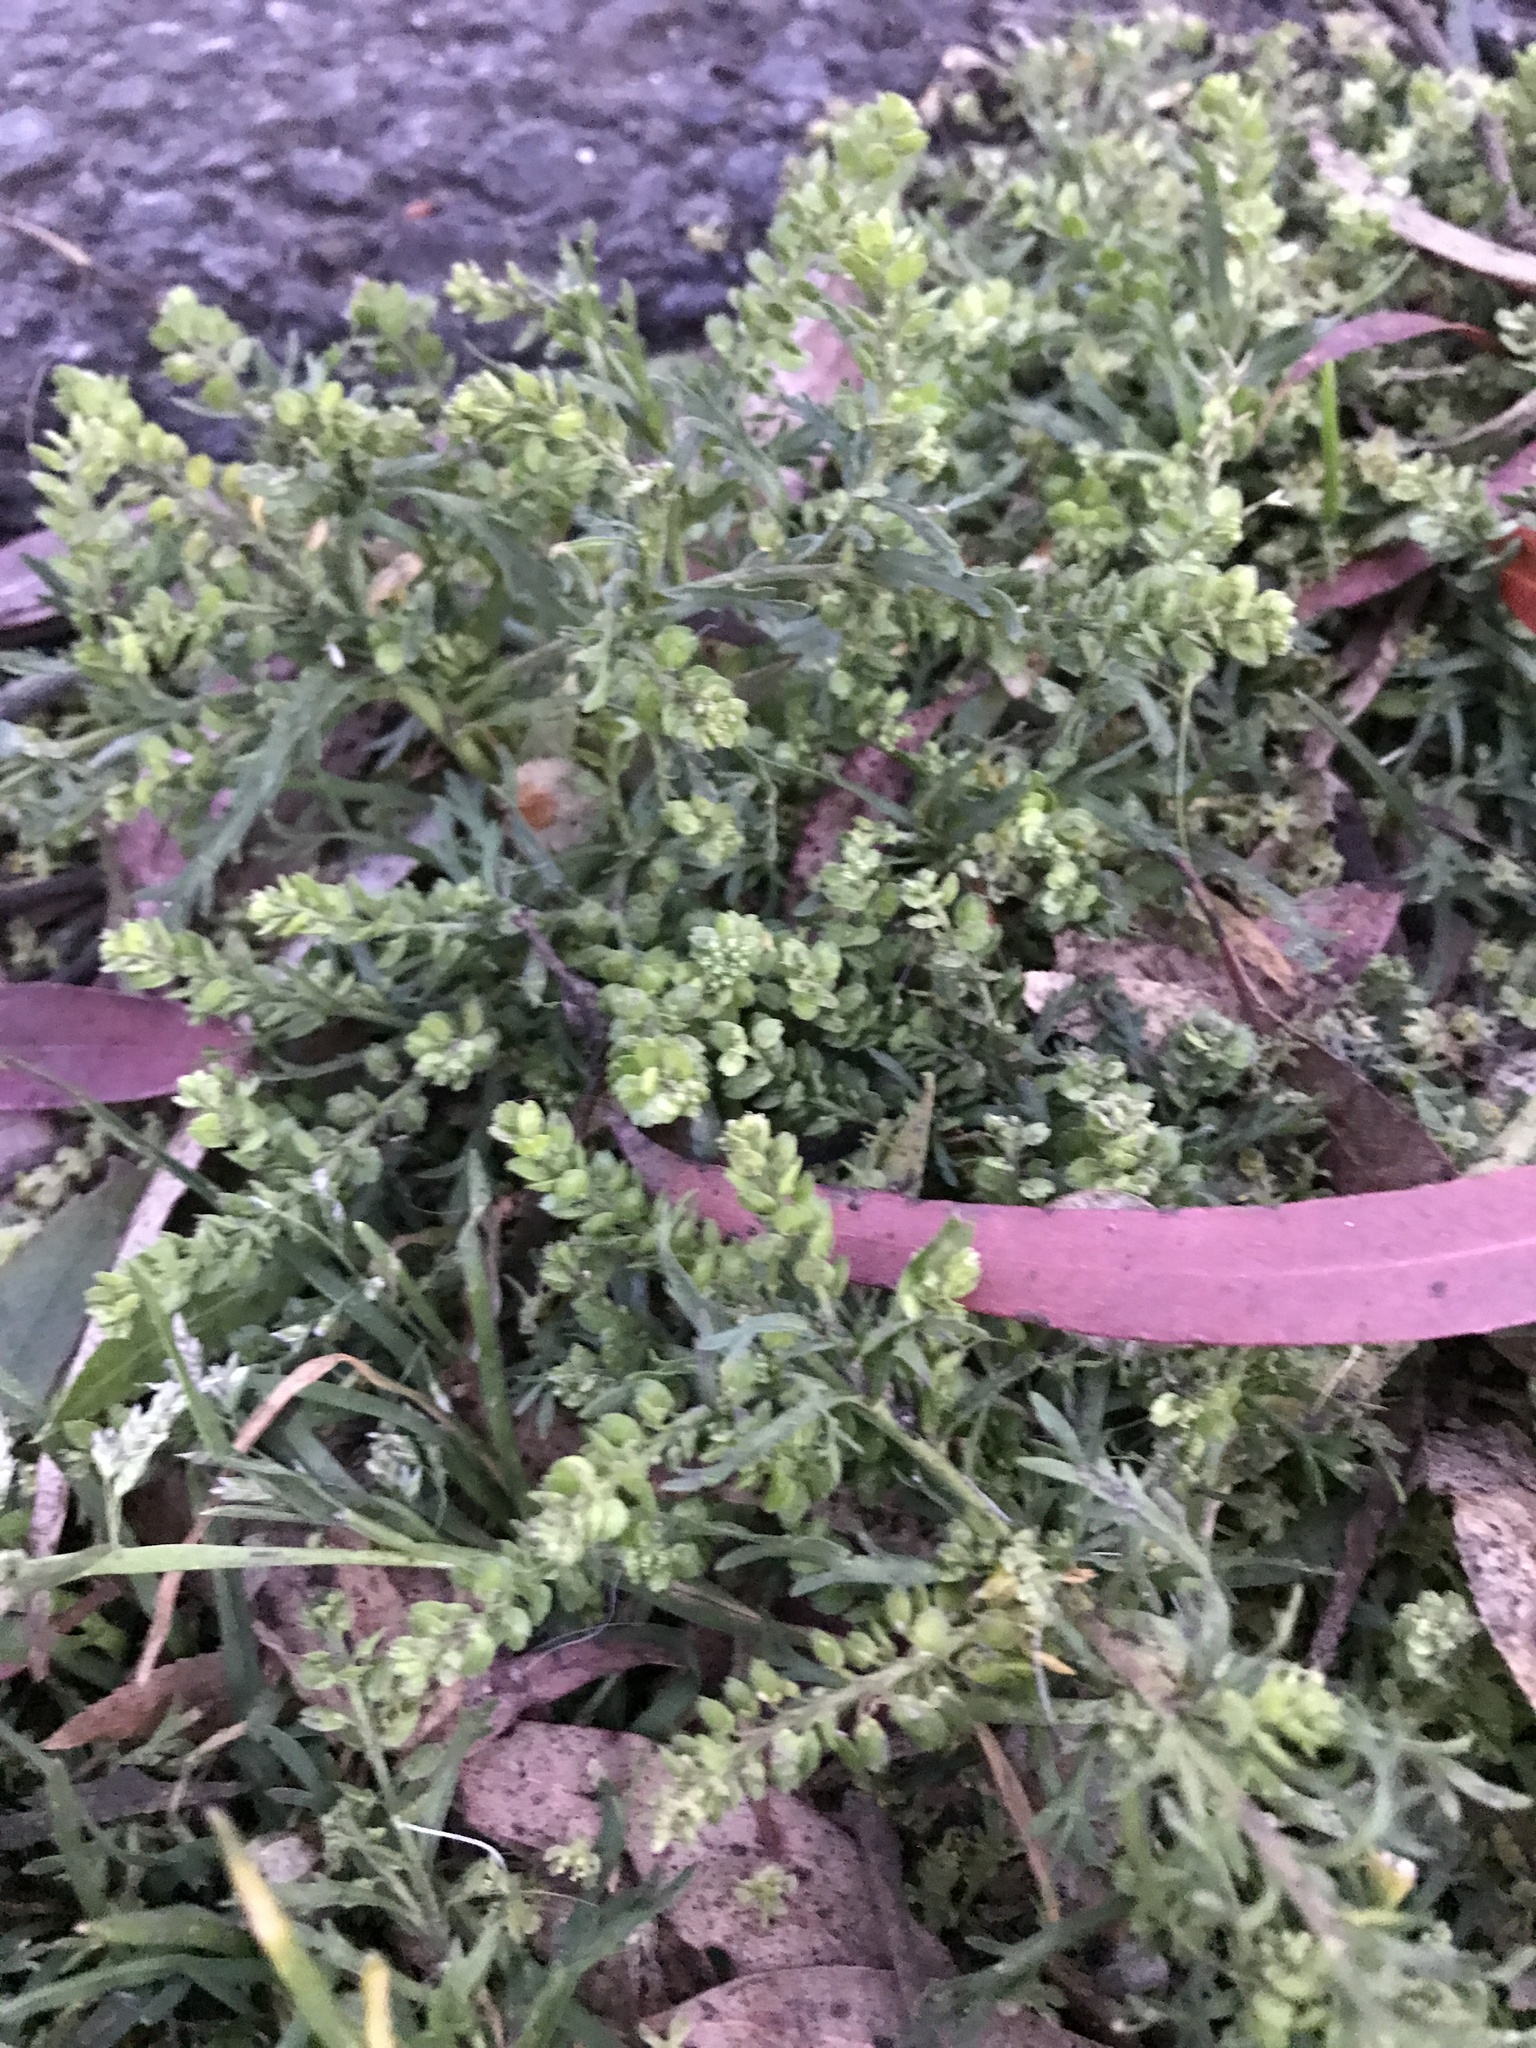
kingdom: Plantae
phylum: Tracheophyta
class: Magnoliopsida
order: Brassicales
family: Brassicaceae
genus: Lepidium
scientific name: Lepidium
